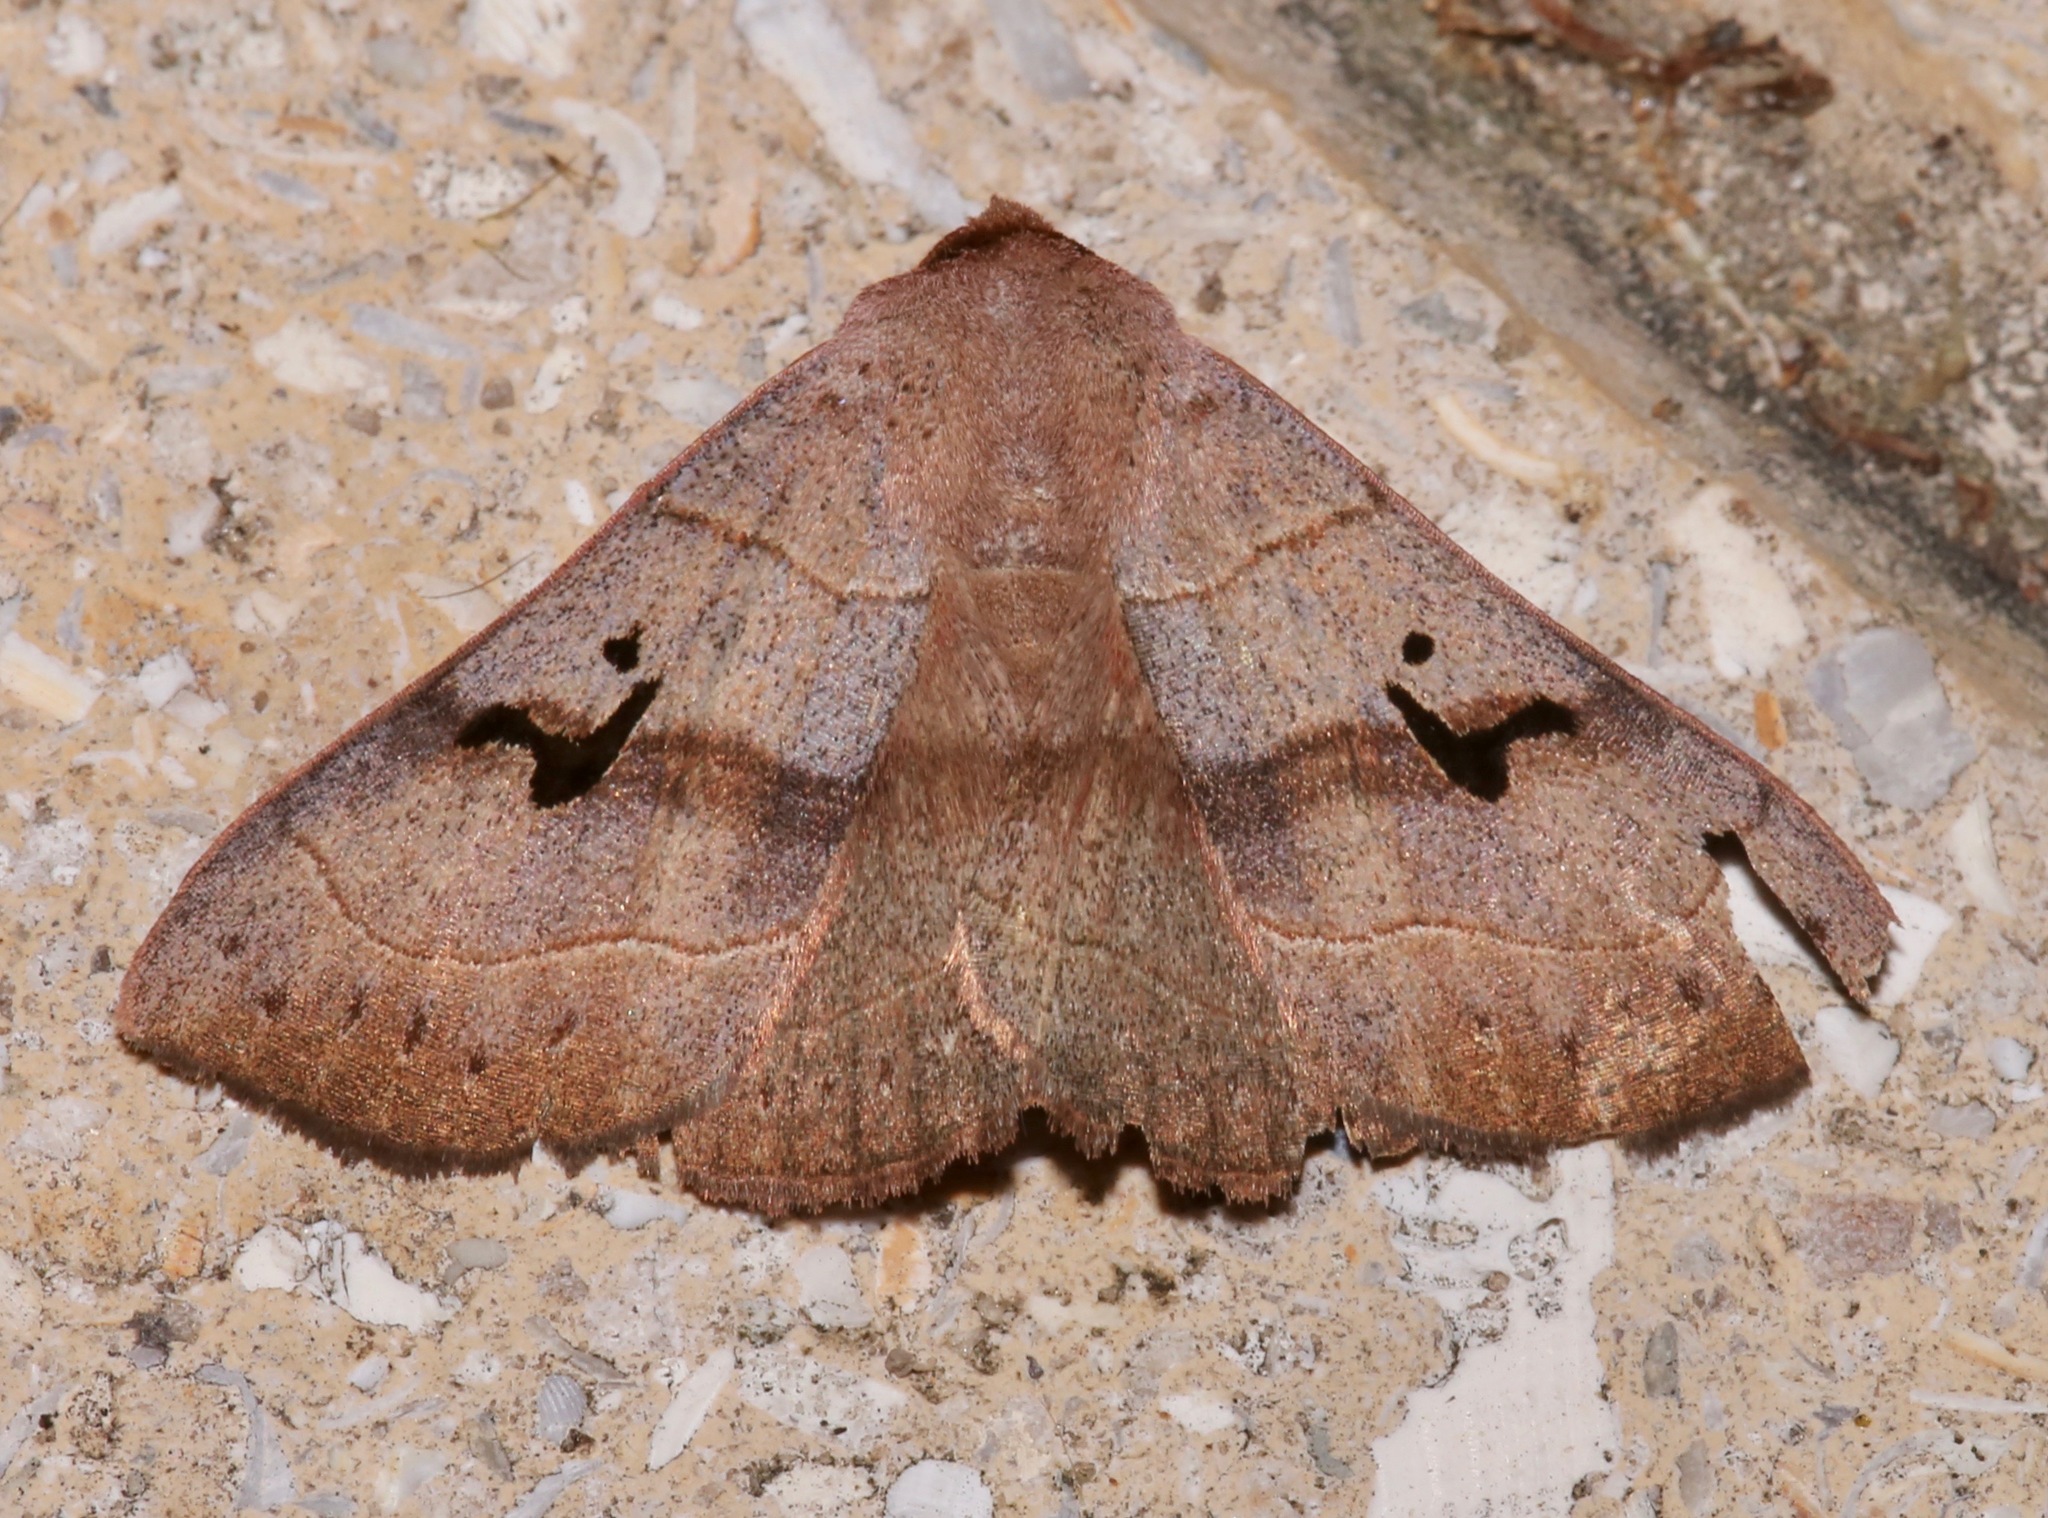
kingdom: Animalia
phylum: Arthropoda
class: Insecta
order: Lepidoptera
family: Erebidae
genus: Panopoda
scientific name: Panopoda carneicosta
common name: Brown panopoda moth
